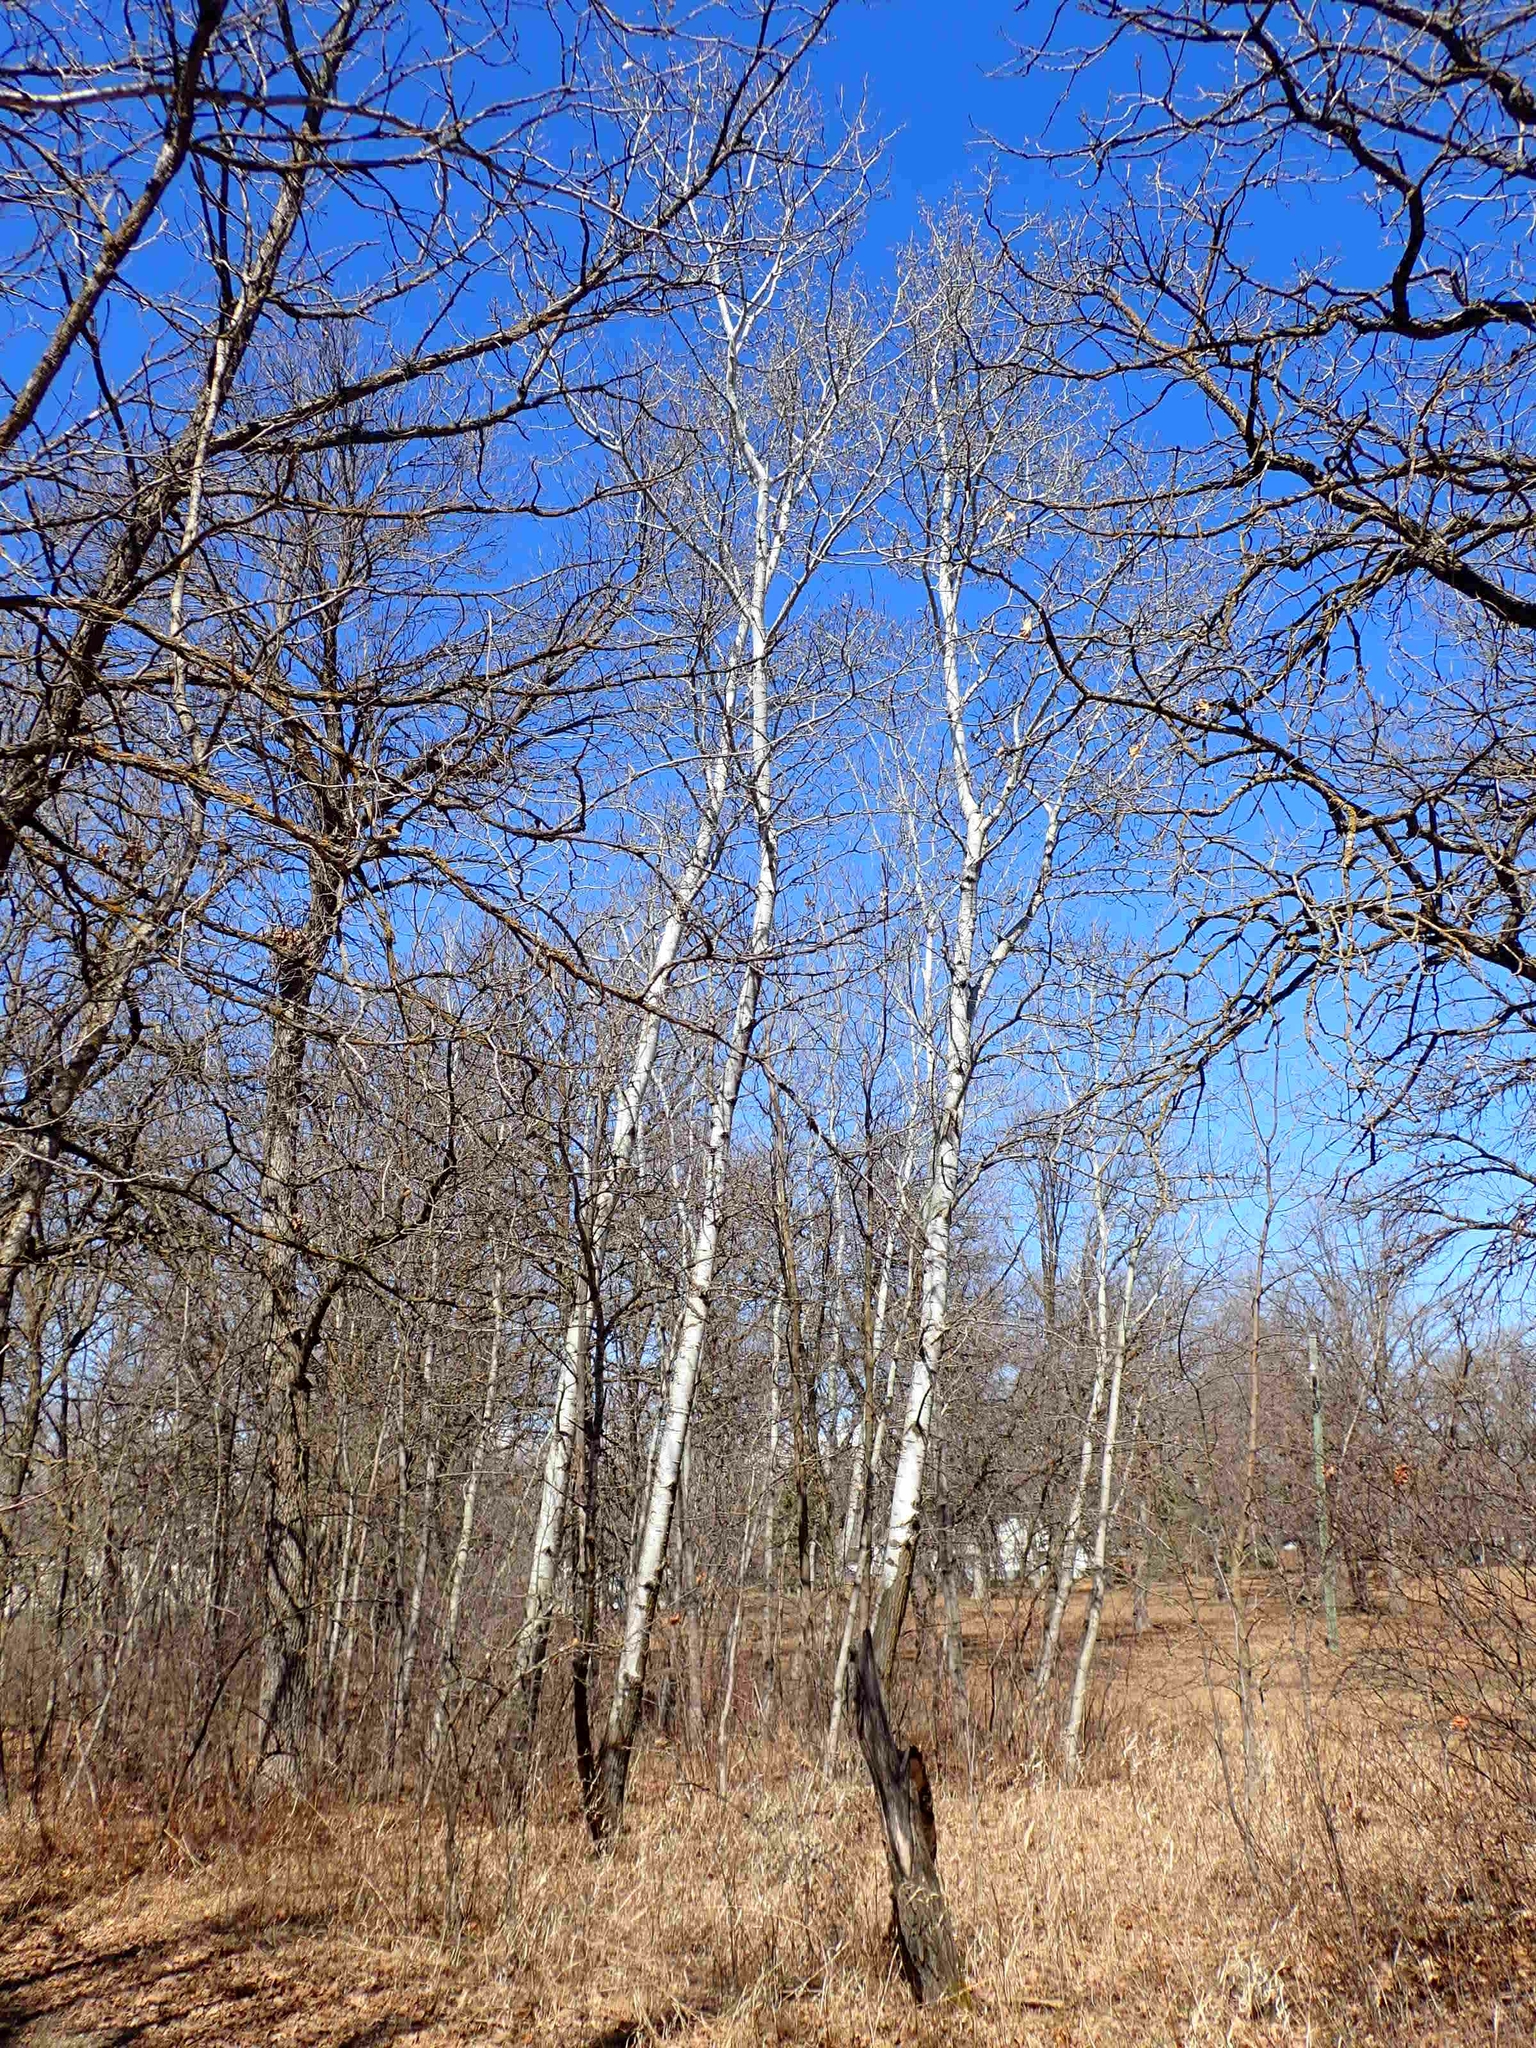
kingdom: Plantae
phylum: Tracheophyta
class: Magnoliopsida
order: Malpighiales
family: Salicaceae
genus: Populus
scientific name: Populus tremuloides
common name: Quaking aspen
